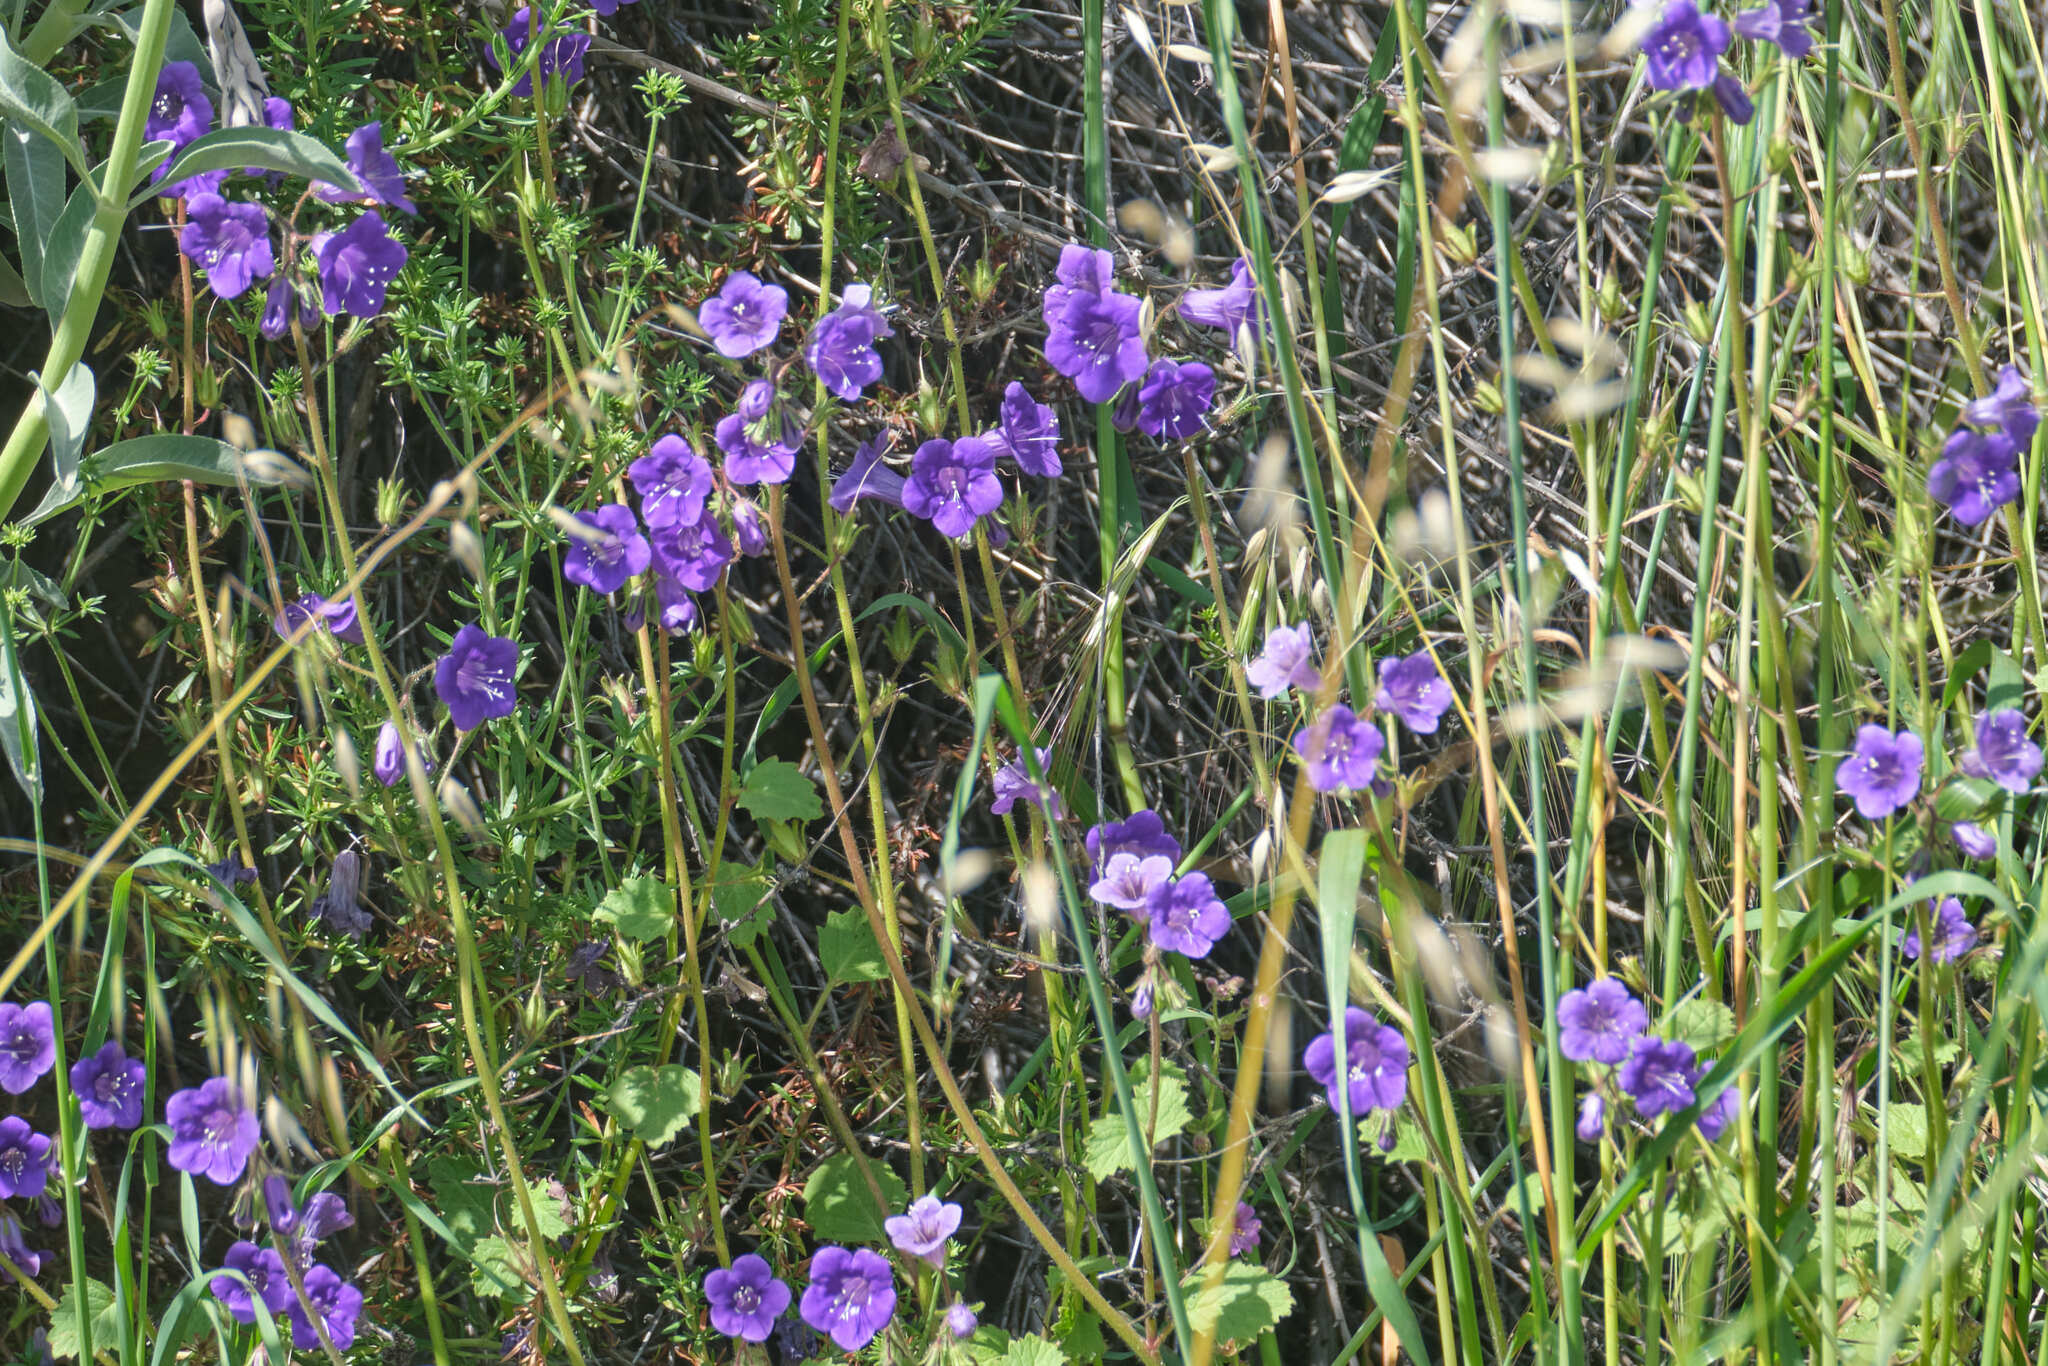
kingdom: Plantae
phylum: Tracheophyta
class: Magnoliopsida
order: Boraginales
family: Hydrophyllaceae
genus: Phacelia
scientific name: Phacelia minor
